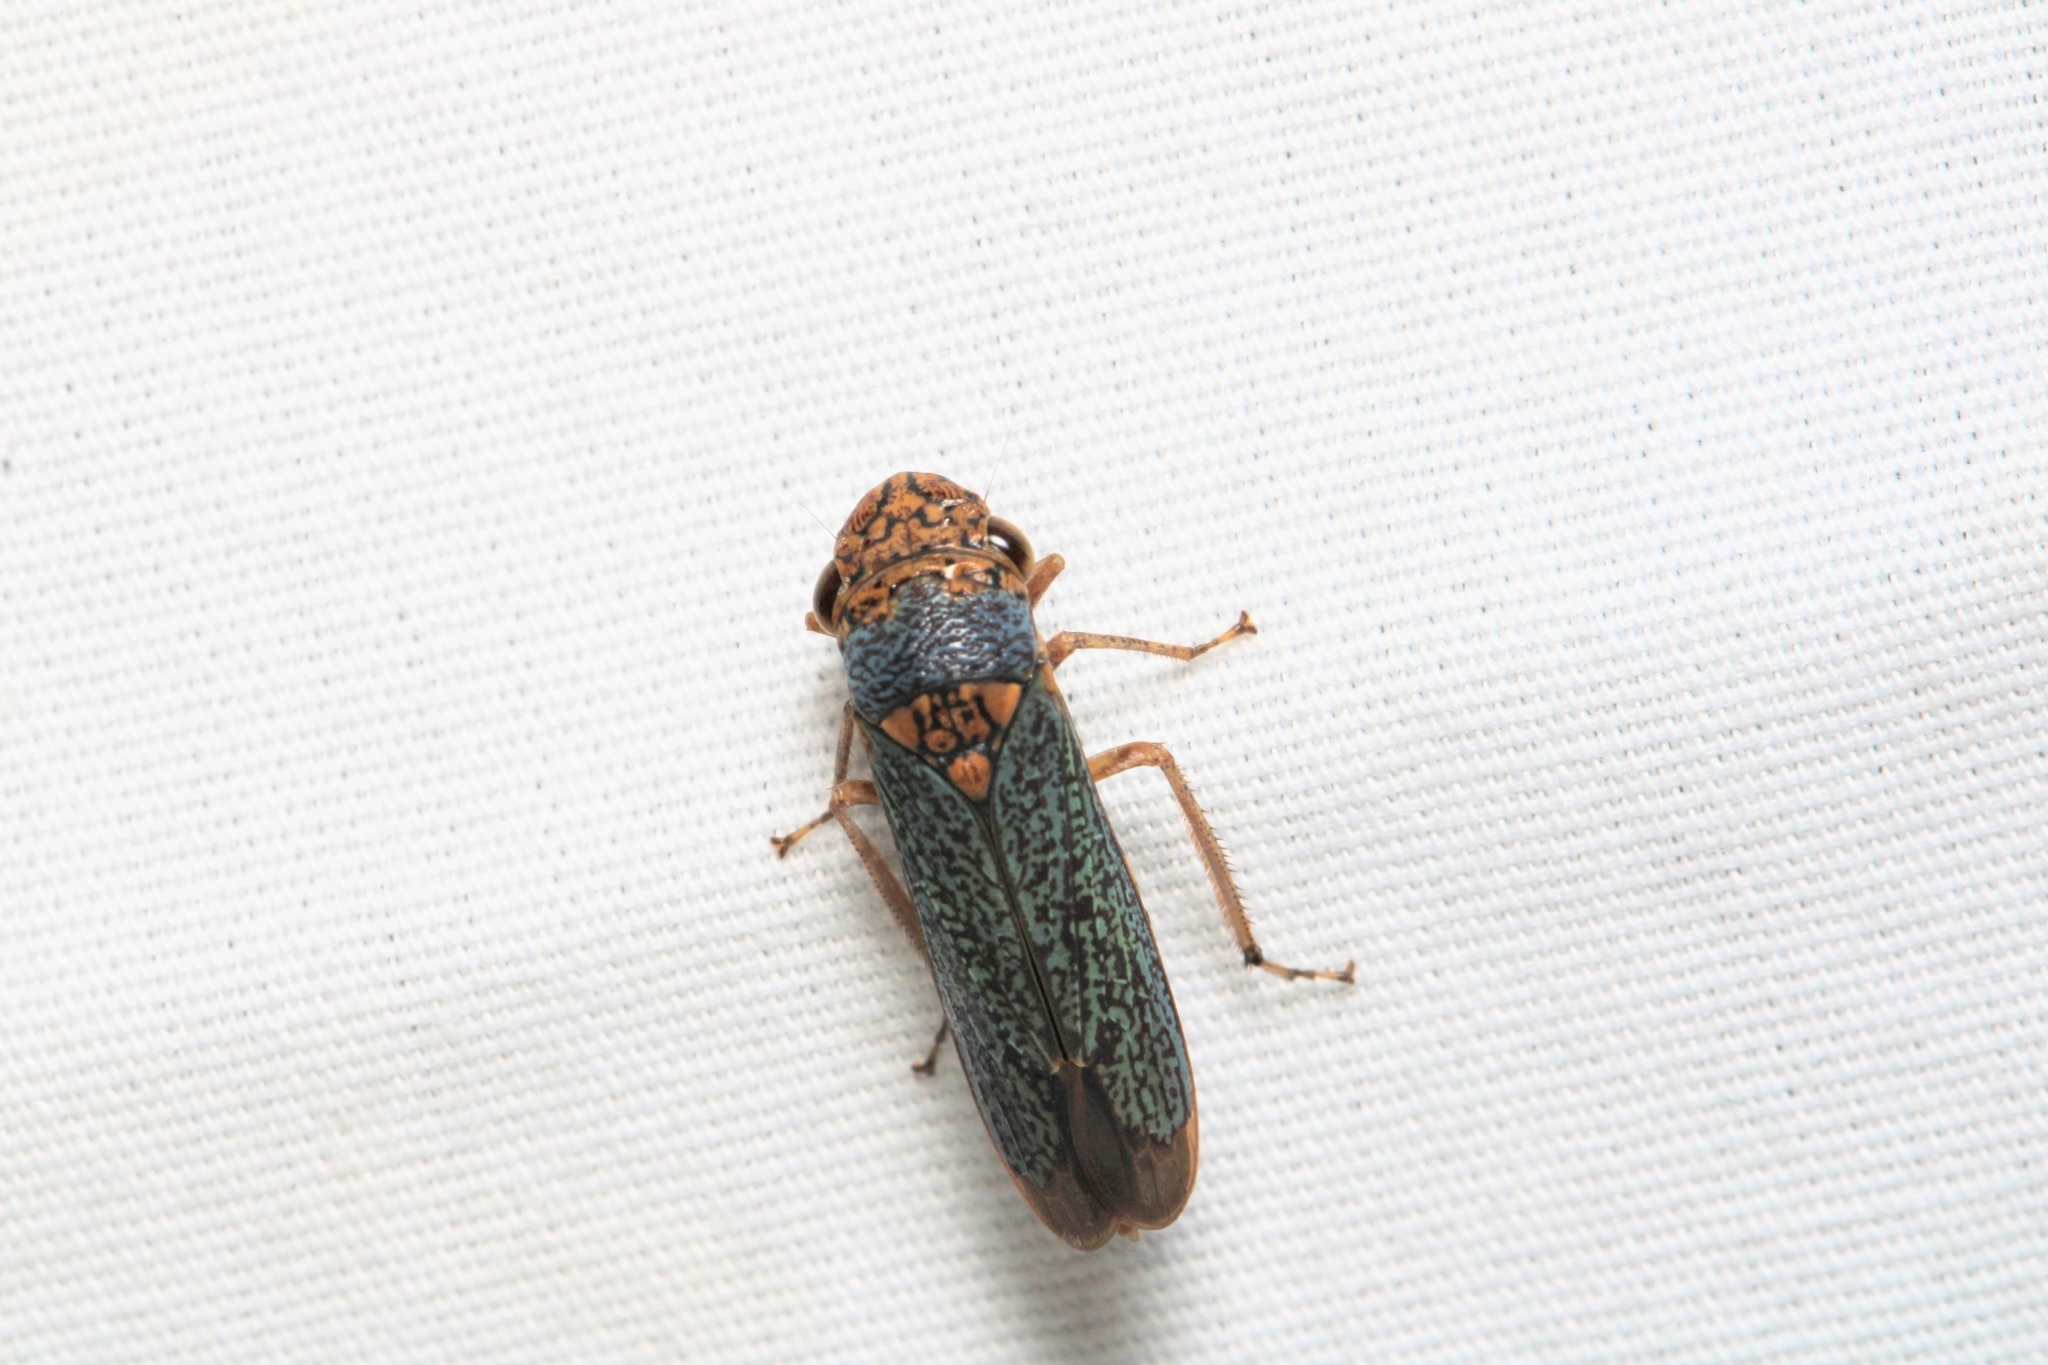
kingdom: Animalia
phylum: Arthropoda
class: Insecta
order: Hemiptera
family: Cicadellidae
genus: Oncometopia
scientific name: Oncometopia orbona
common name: Broad-headed sharpshooter
